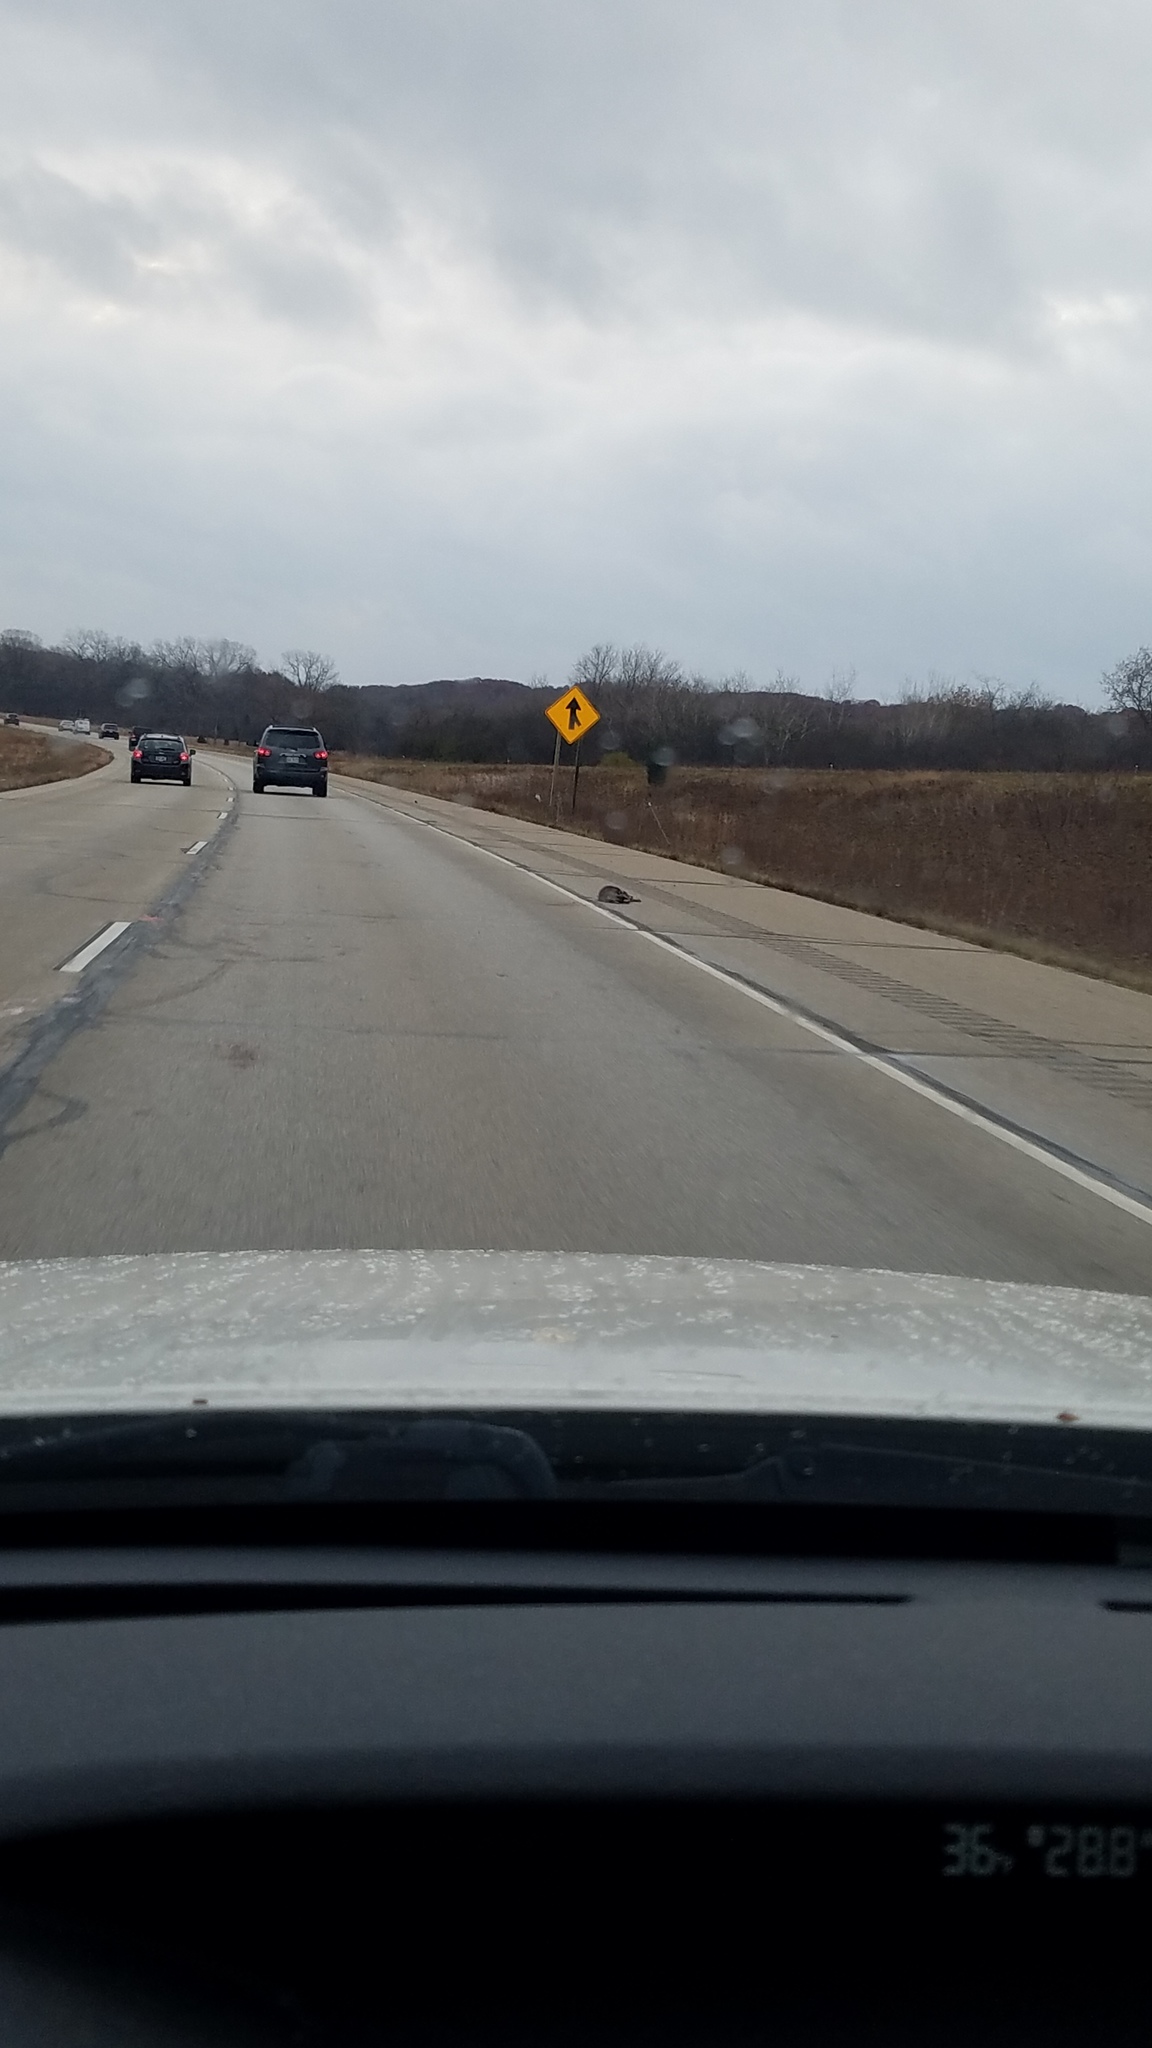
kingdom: Animalia
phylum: Chordata
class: Mammalia
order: Carnivora
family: Procyonidae
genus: Procyon
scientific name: Procyon lotor
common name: Raccoon
